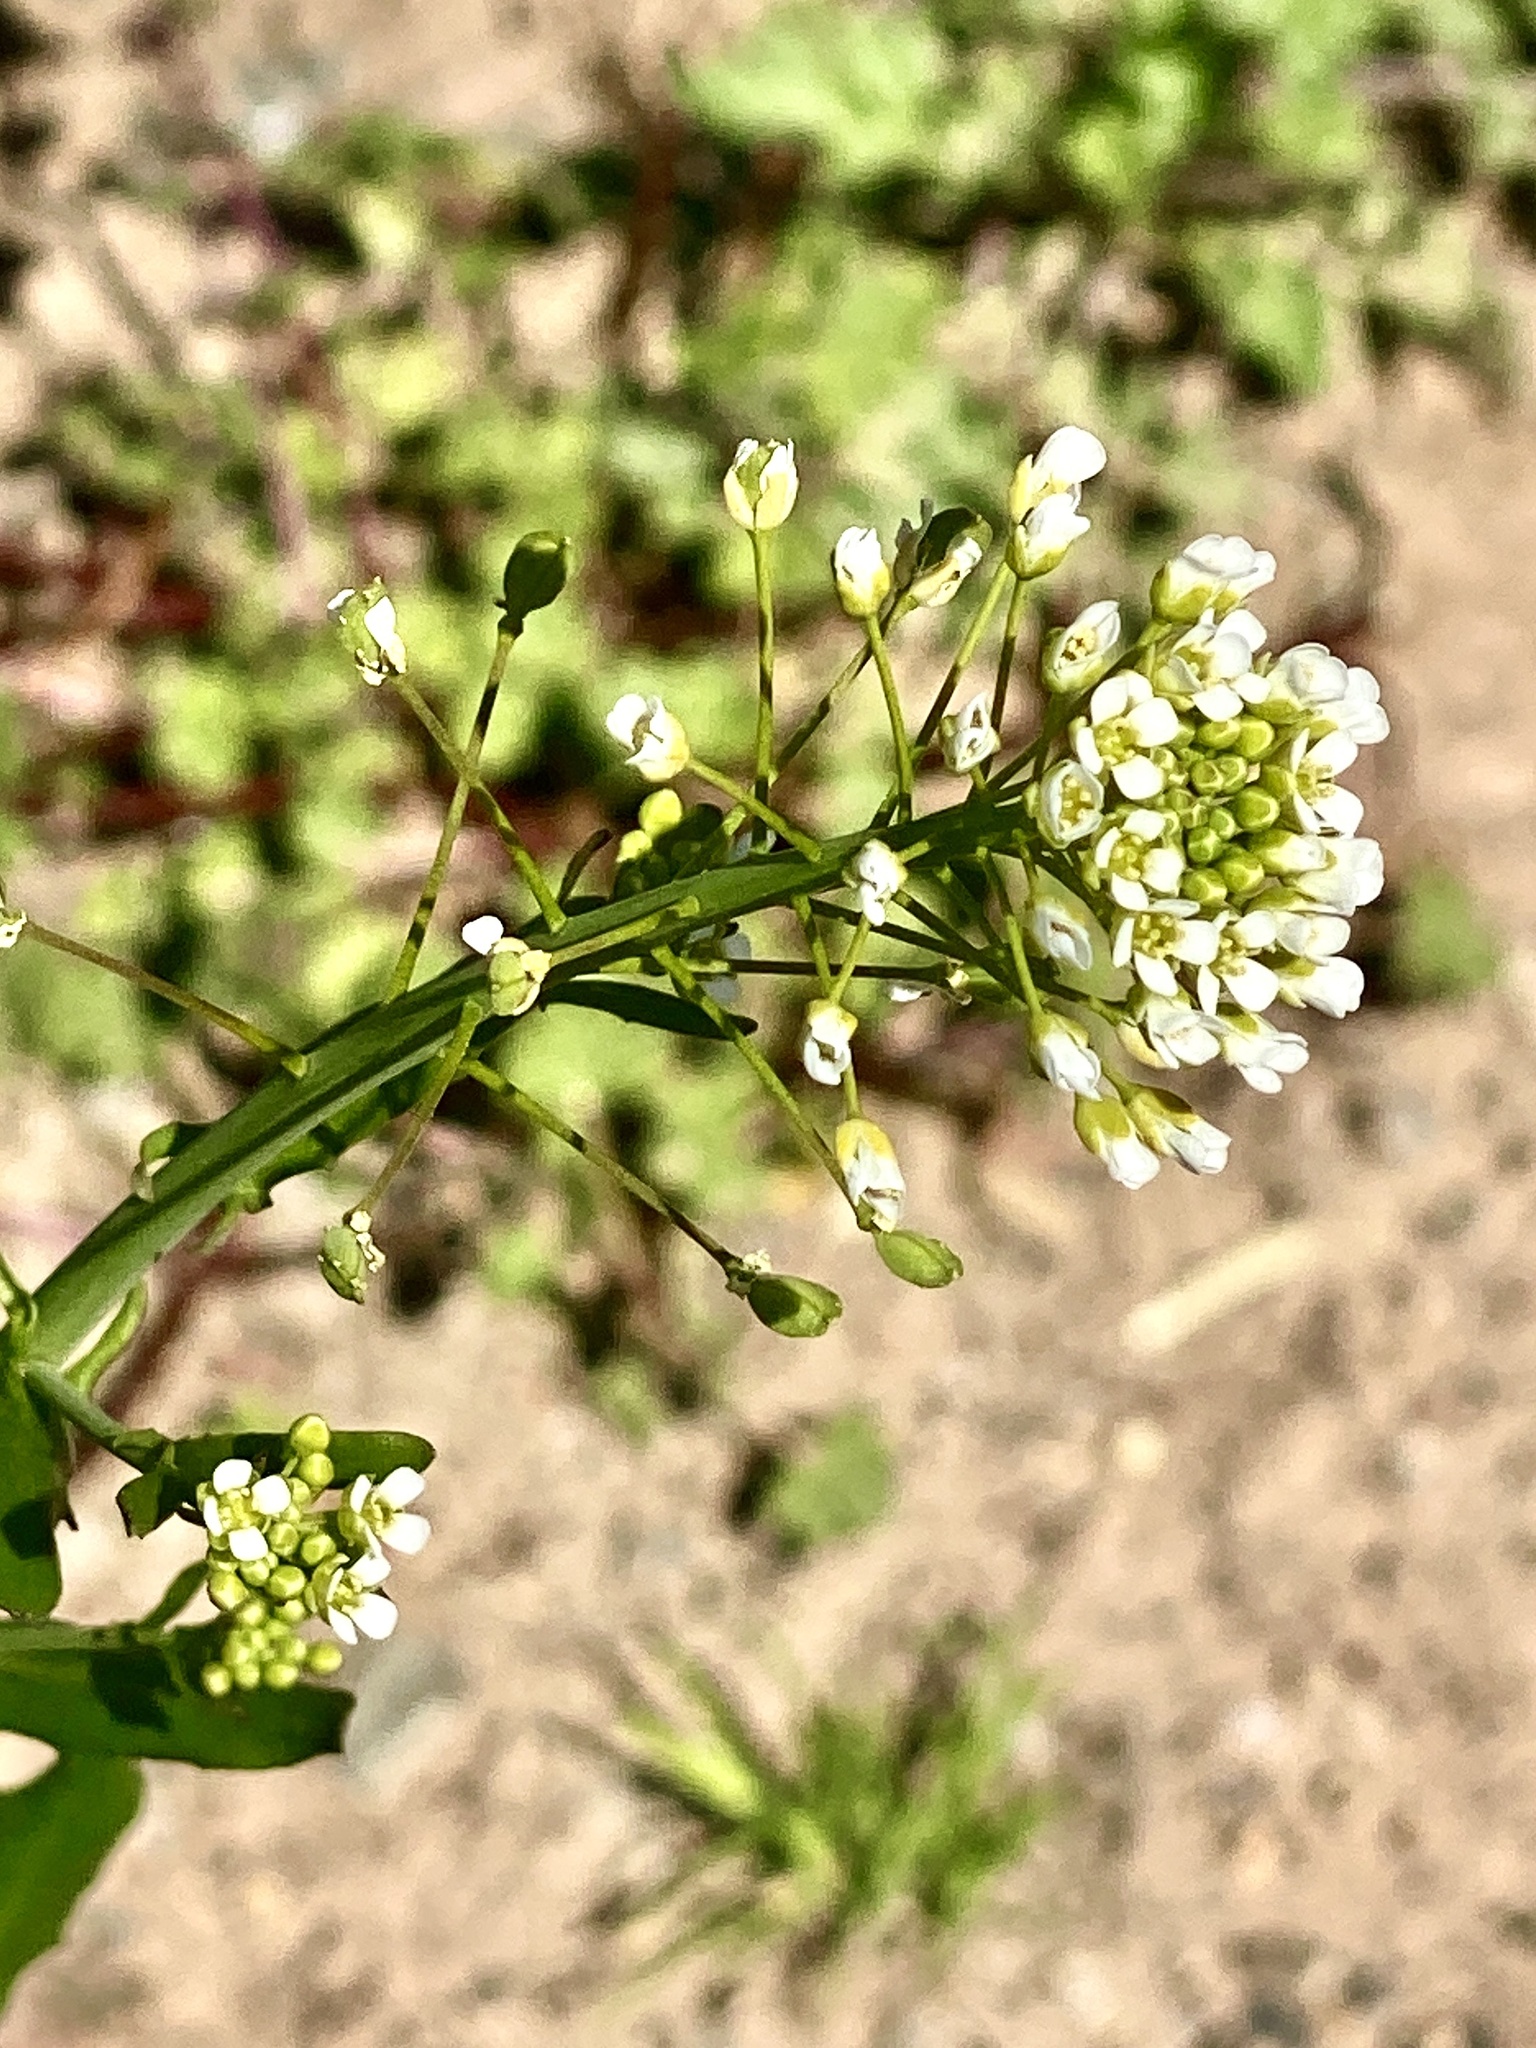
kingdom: Plantae
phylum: Tracheophyta
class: Magnoliopsida
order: Brassicales
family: Brassicaceae
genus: Mummenhoffia
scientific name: Mummenhoffia alliacea
